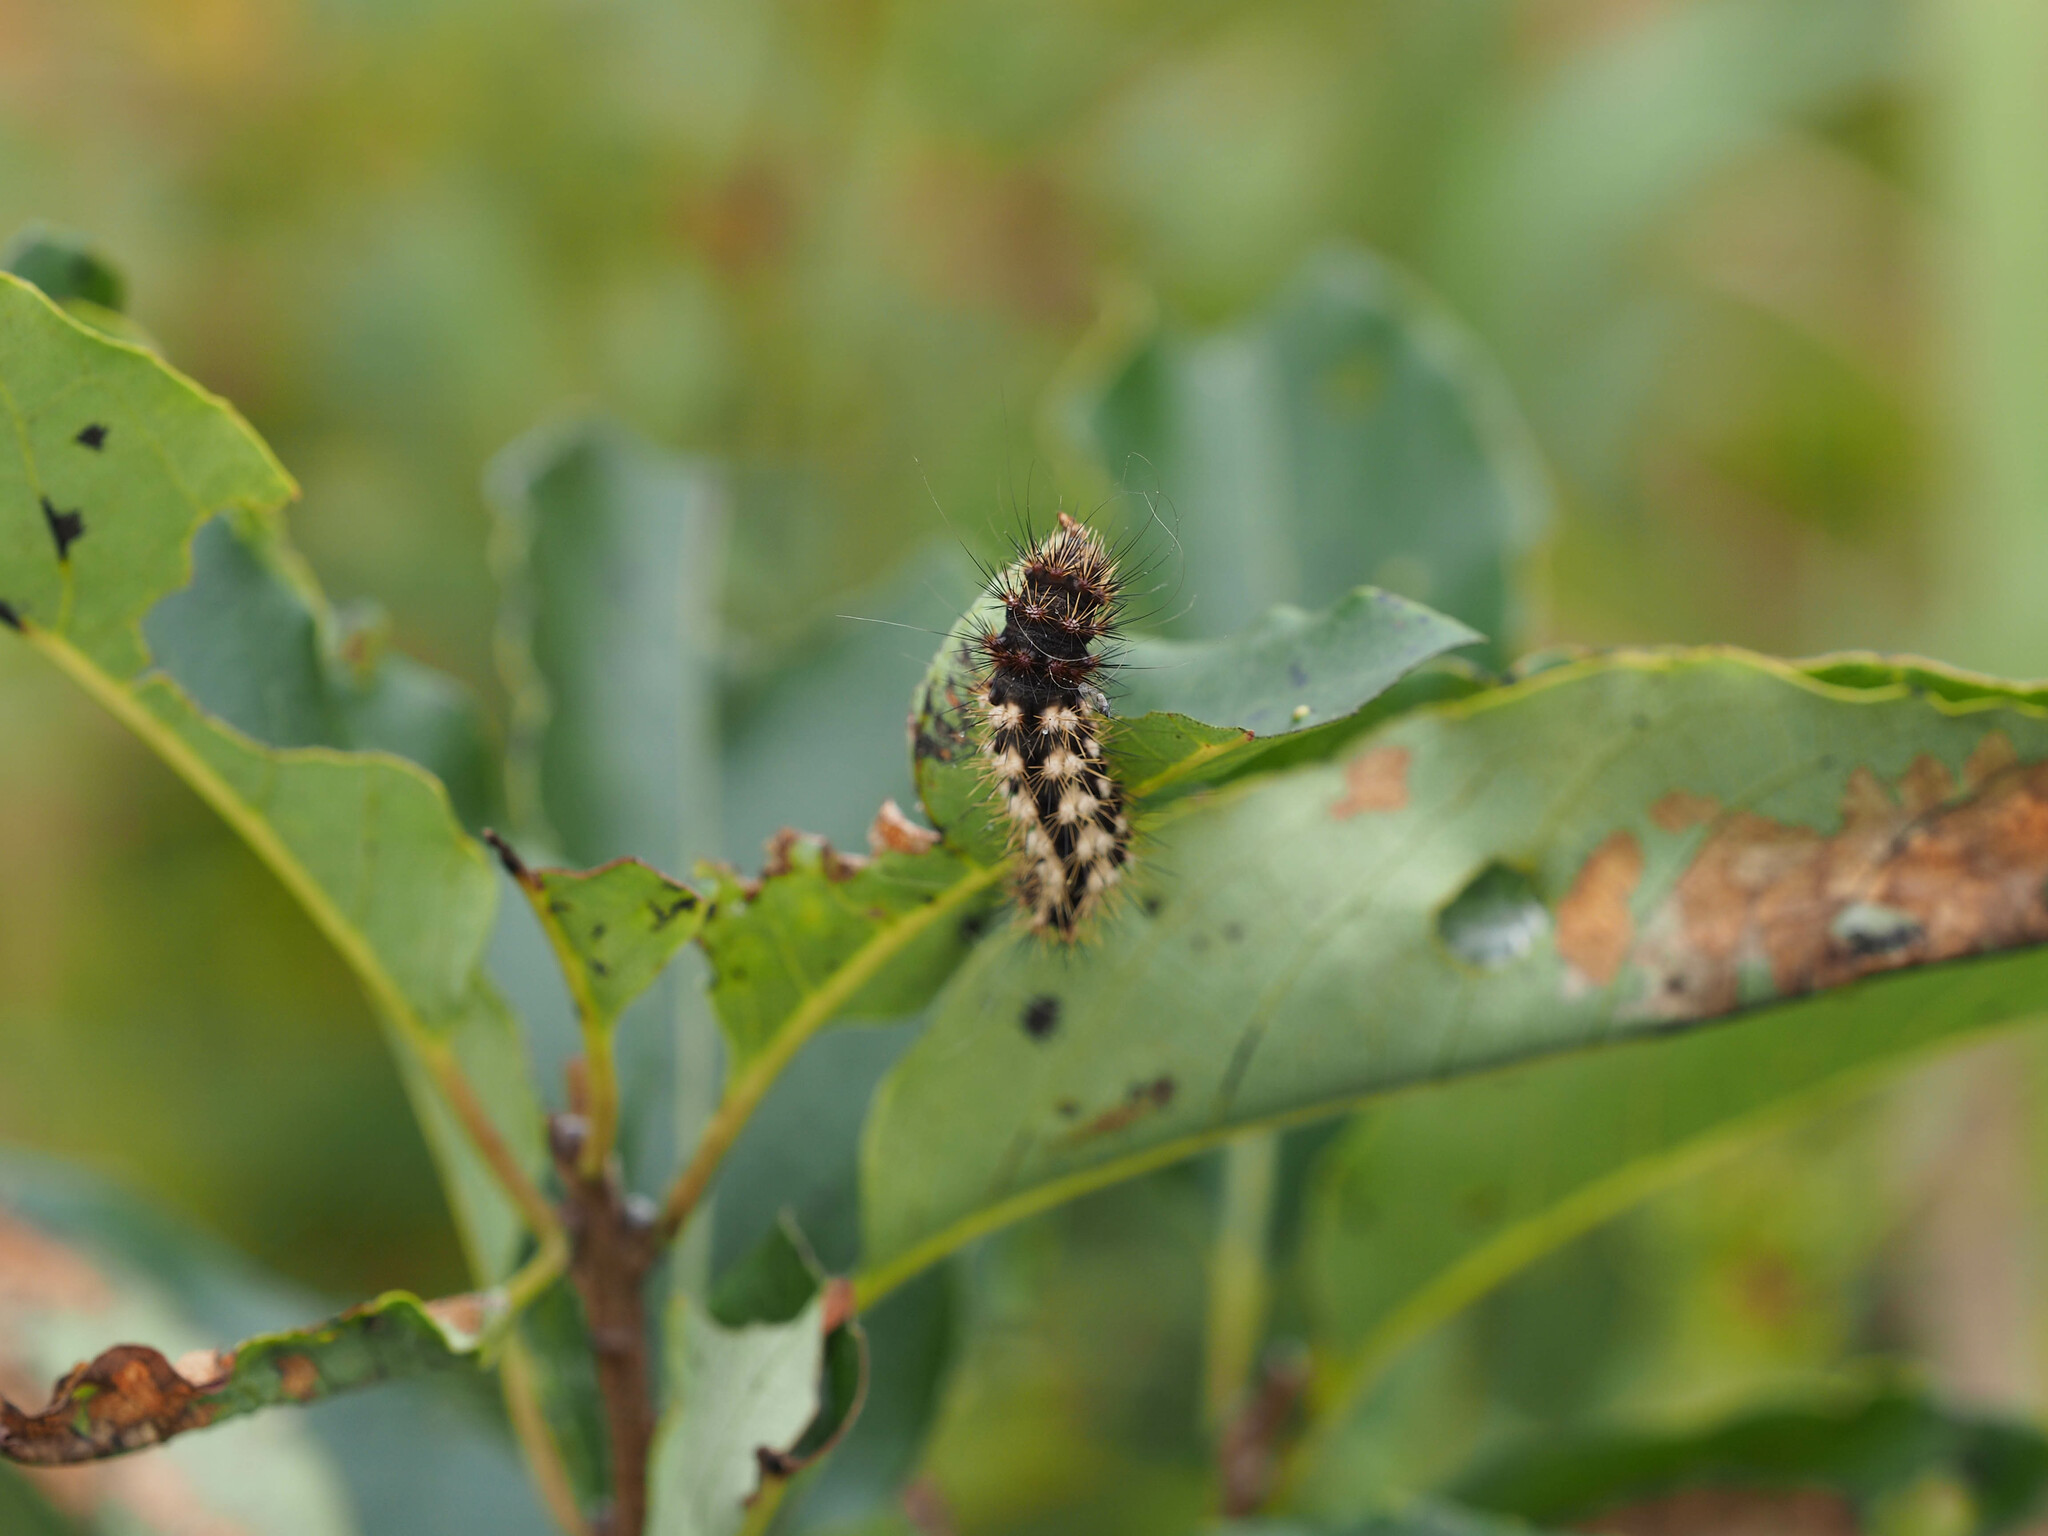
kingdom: Animalia
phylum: Arthropoda
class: Insecta
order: Lepidoptera
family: Noctuidae
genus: Acronicta
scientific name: Acronicta longa
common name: Long-winged dagger
